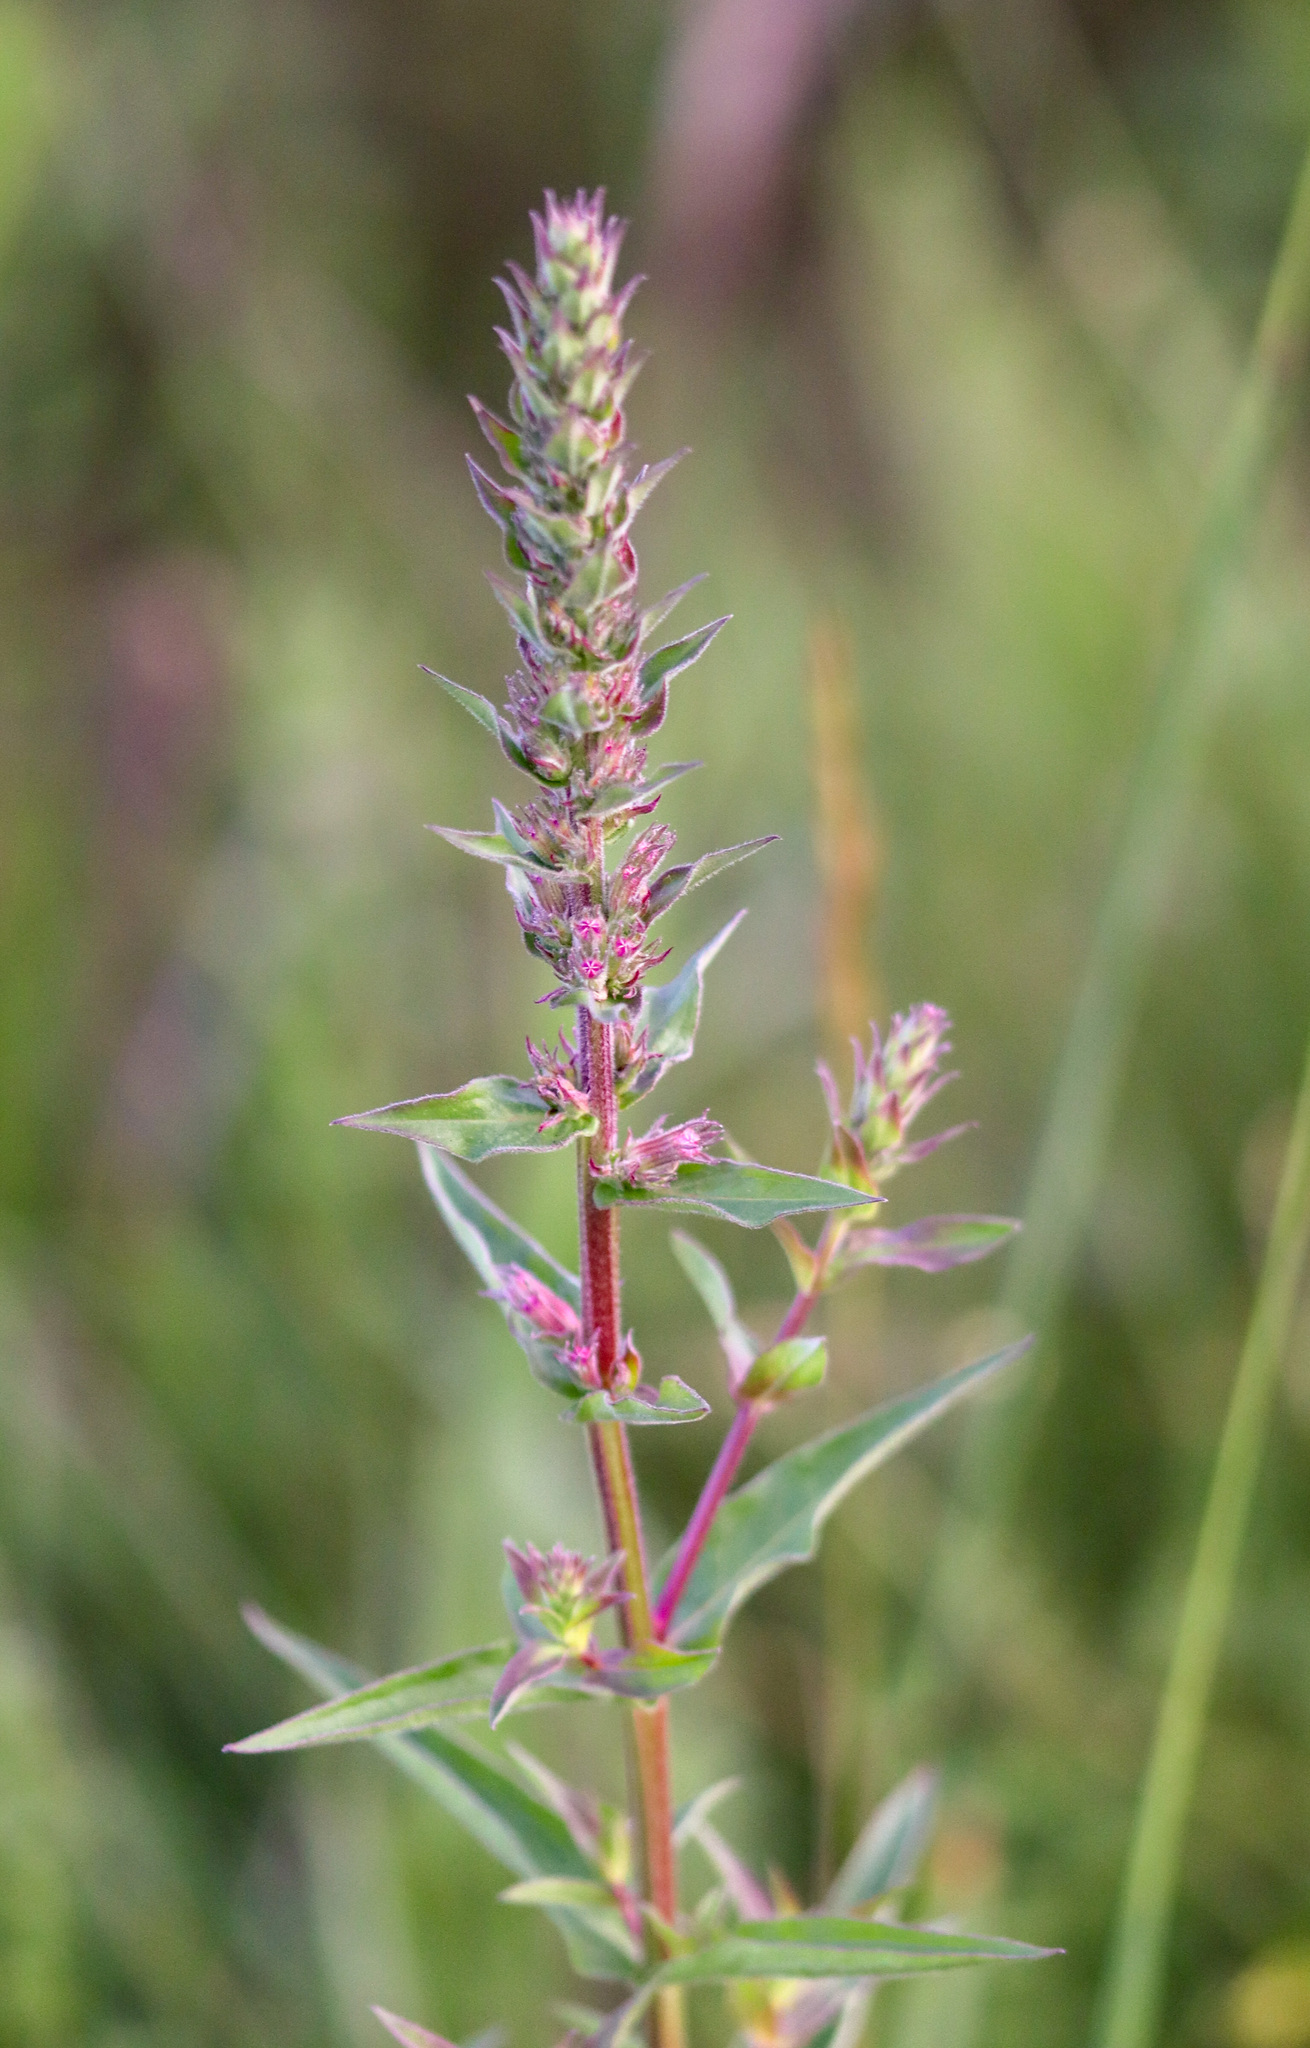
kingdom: Plantae
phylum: Tracheophyta
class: Magnoliopsida
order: Myrtales
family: Lythraceae
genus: Lythrum
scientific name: Lythrum salicaria
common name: Purple loosestrife
